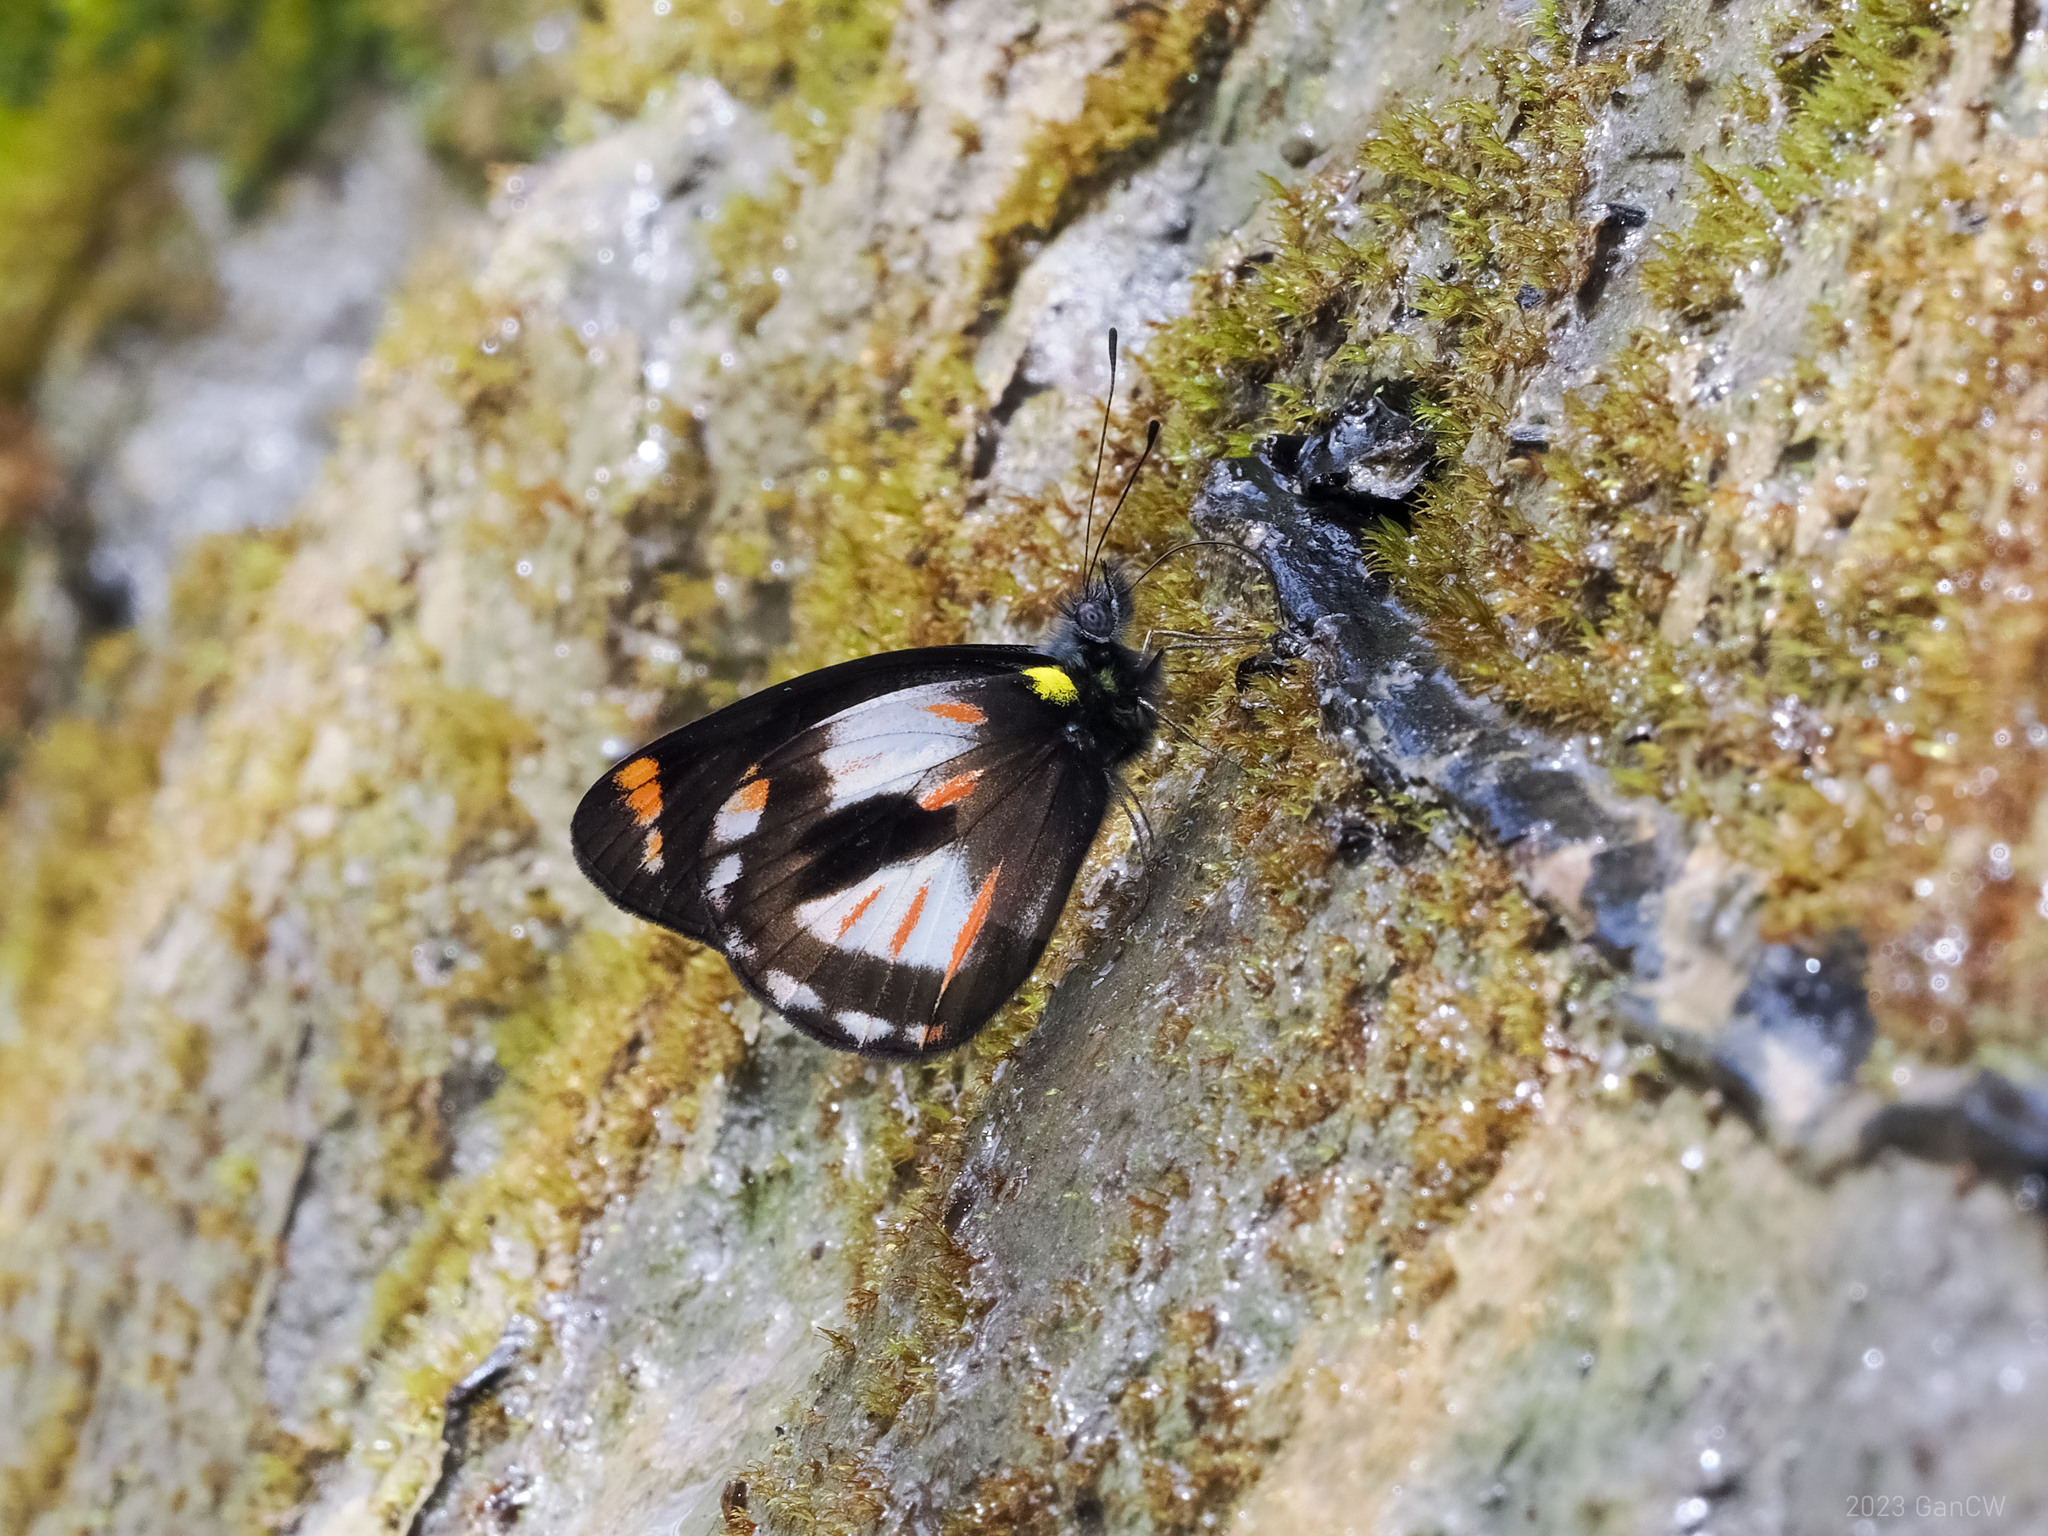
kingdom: Animalia
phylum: Arthropoda
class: Insecta
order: Lepidoptera
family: Pieridae
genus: Delias
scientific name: Delias argentata
